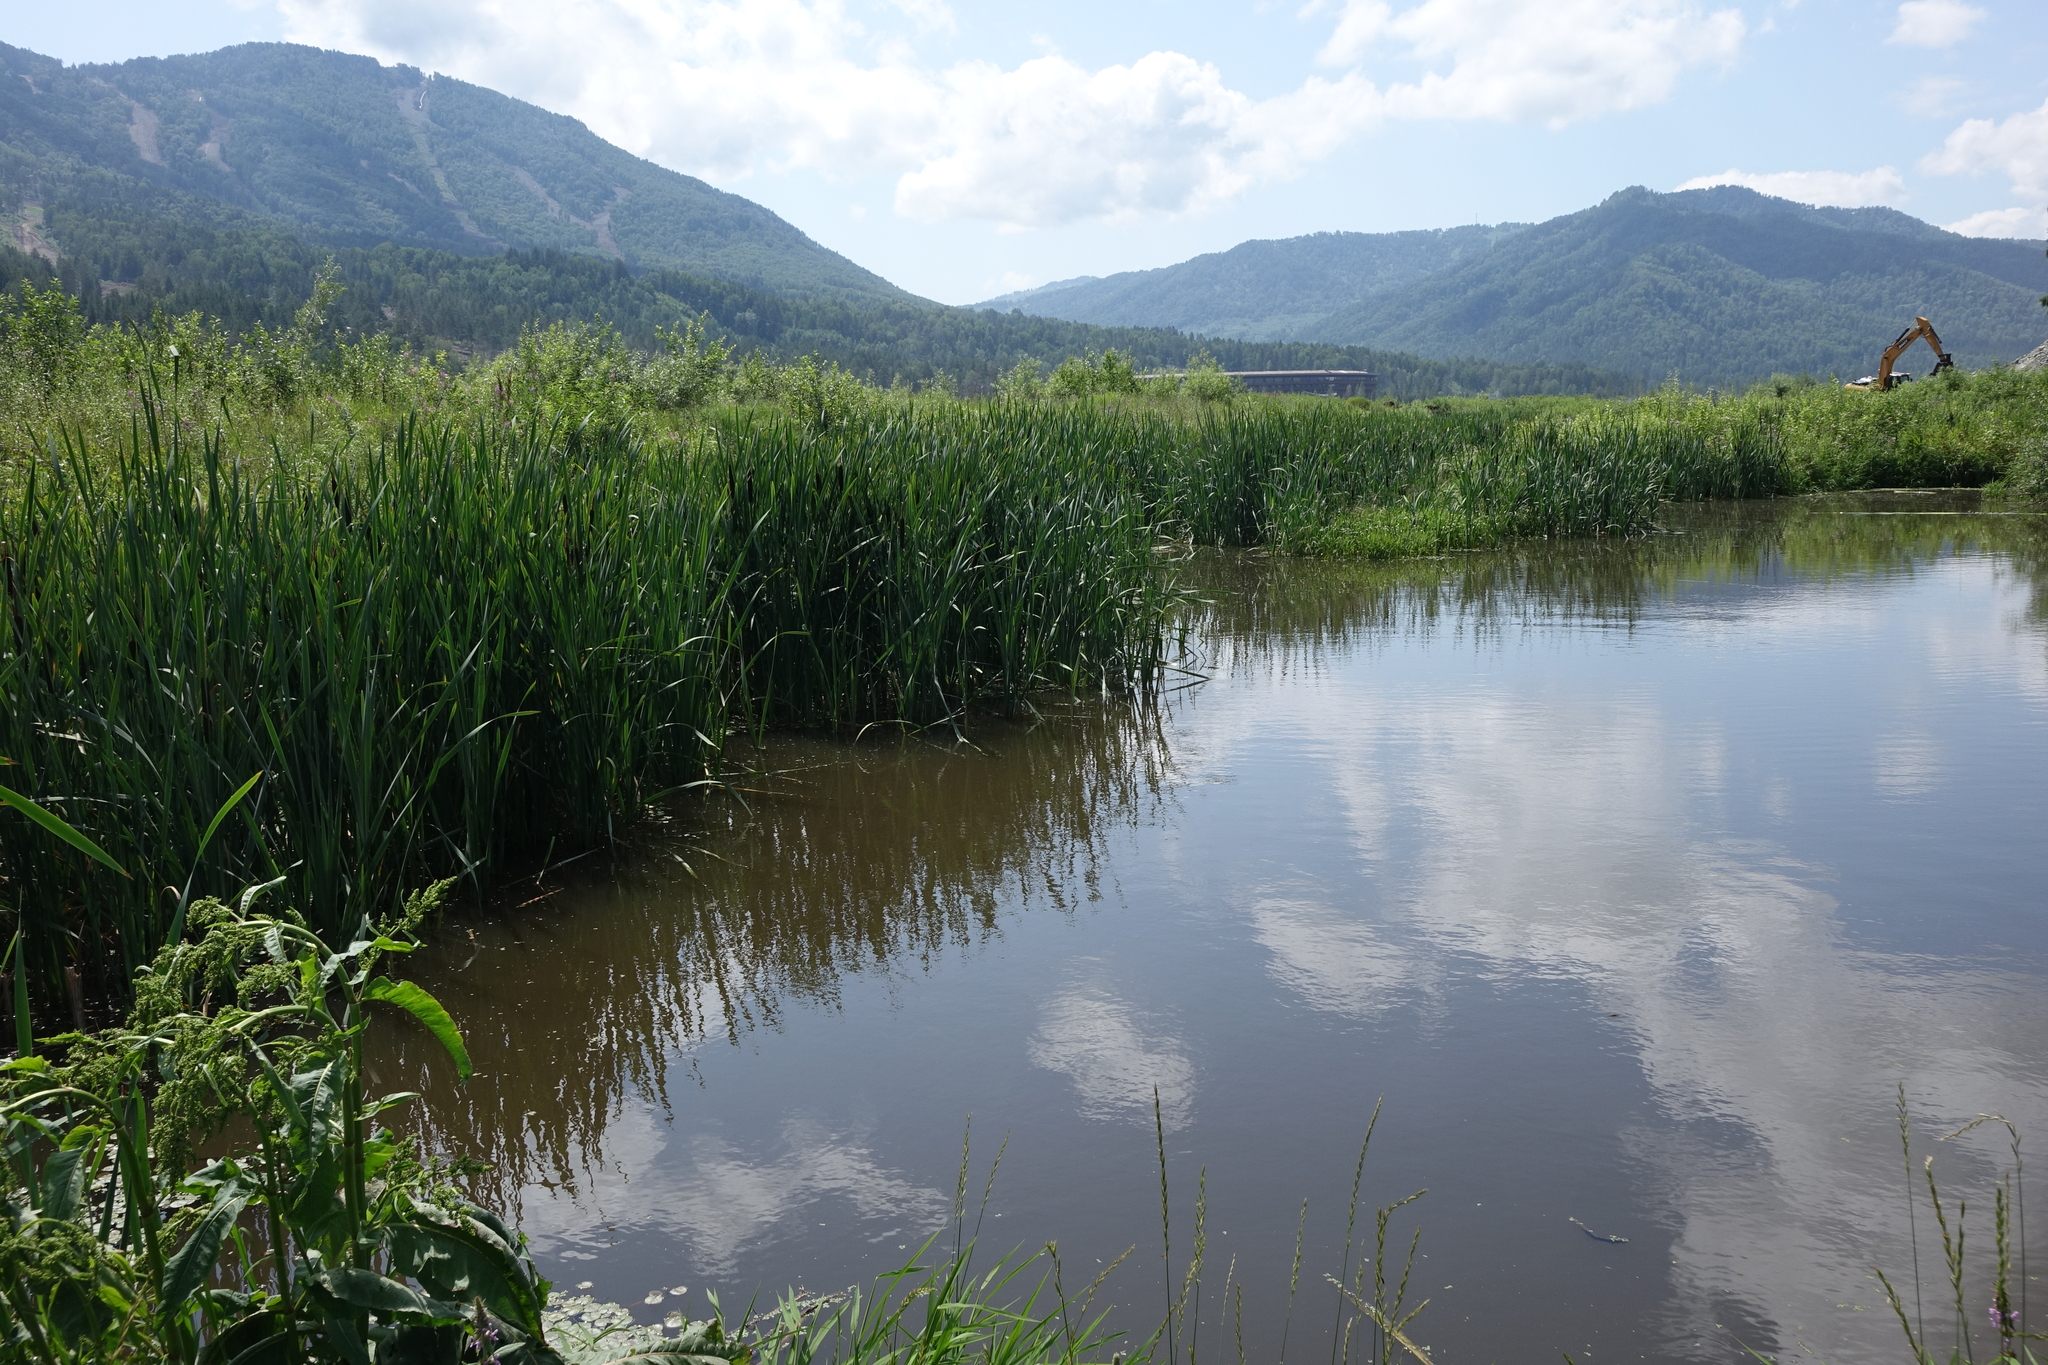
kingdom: Plantae
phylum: Tracheophyta
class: Liliopsida
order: Poales
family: Typhaceae
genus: Typha
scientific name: Typha latifolia
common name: Broadleaf cattail
